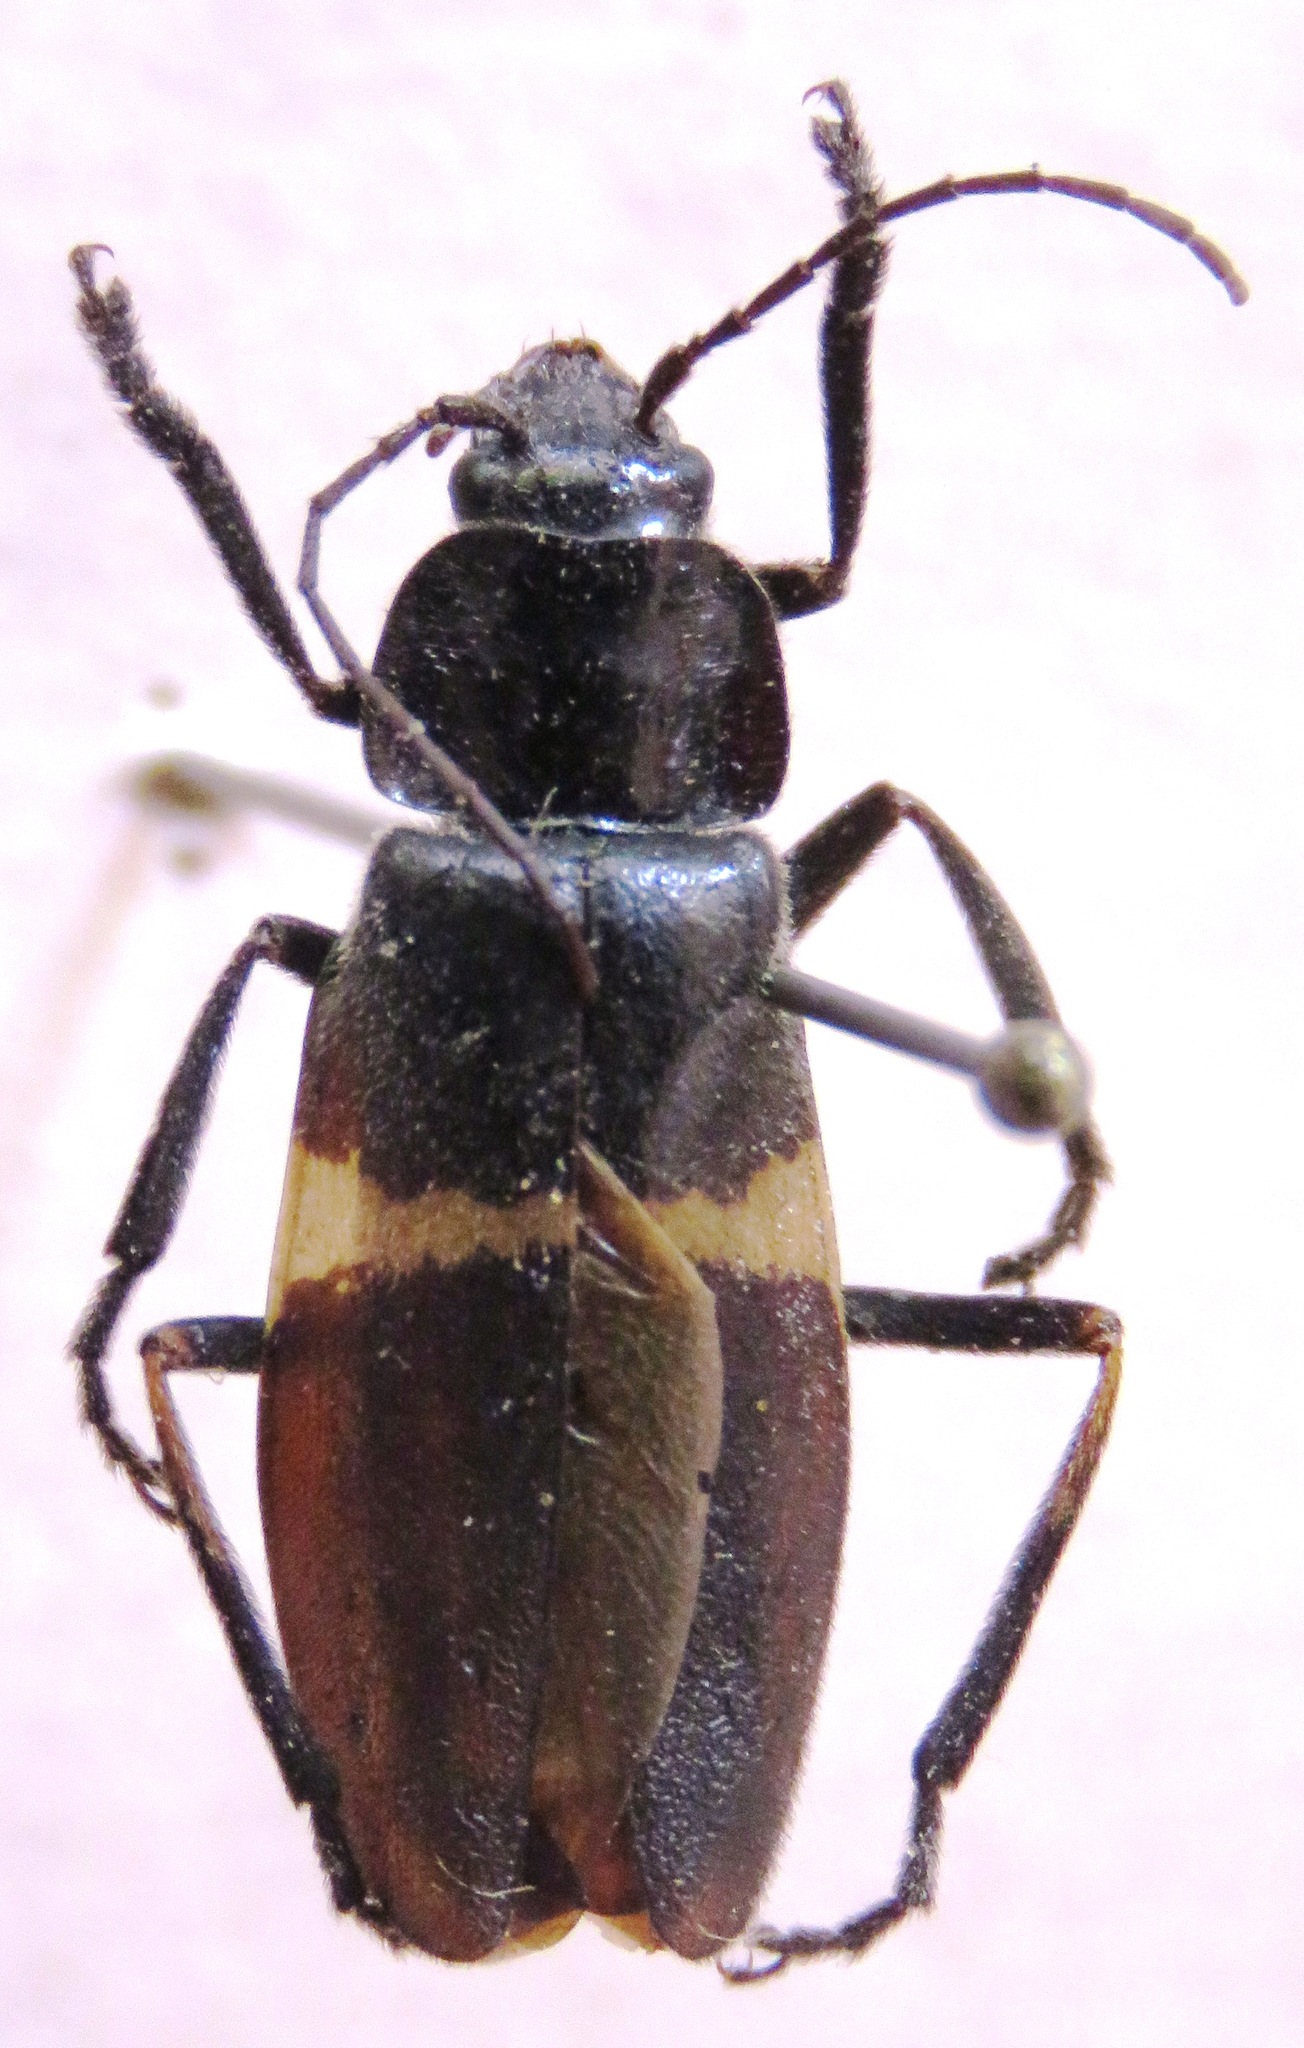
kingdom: Animalia
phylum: Arthropoda
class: Insecta
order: Coleoptera
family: Cantharidae
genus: Chauliognathus
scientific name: Chauliognathus
